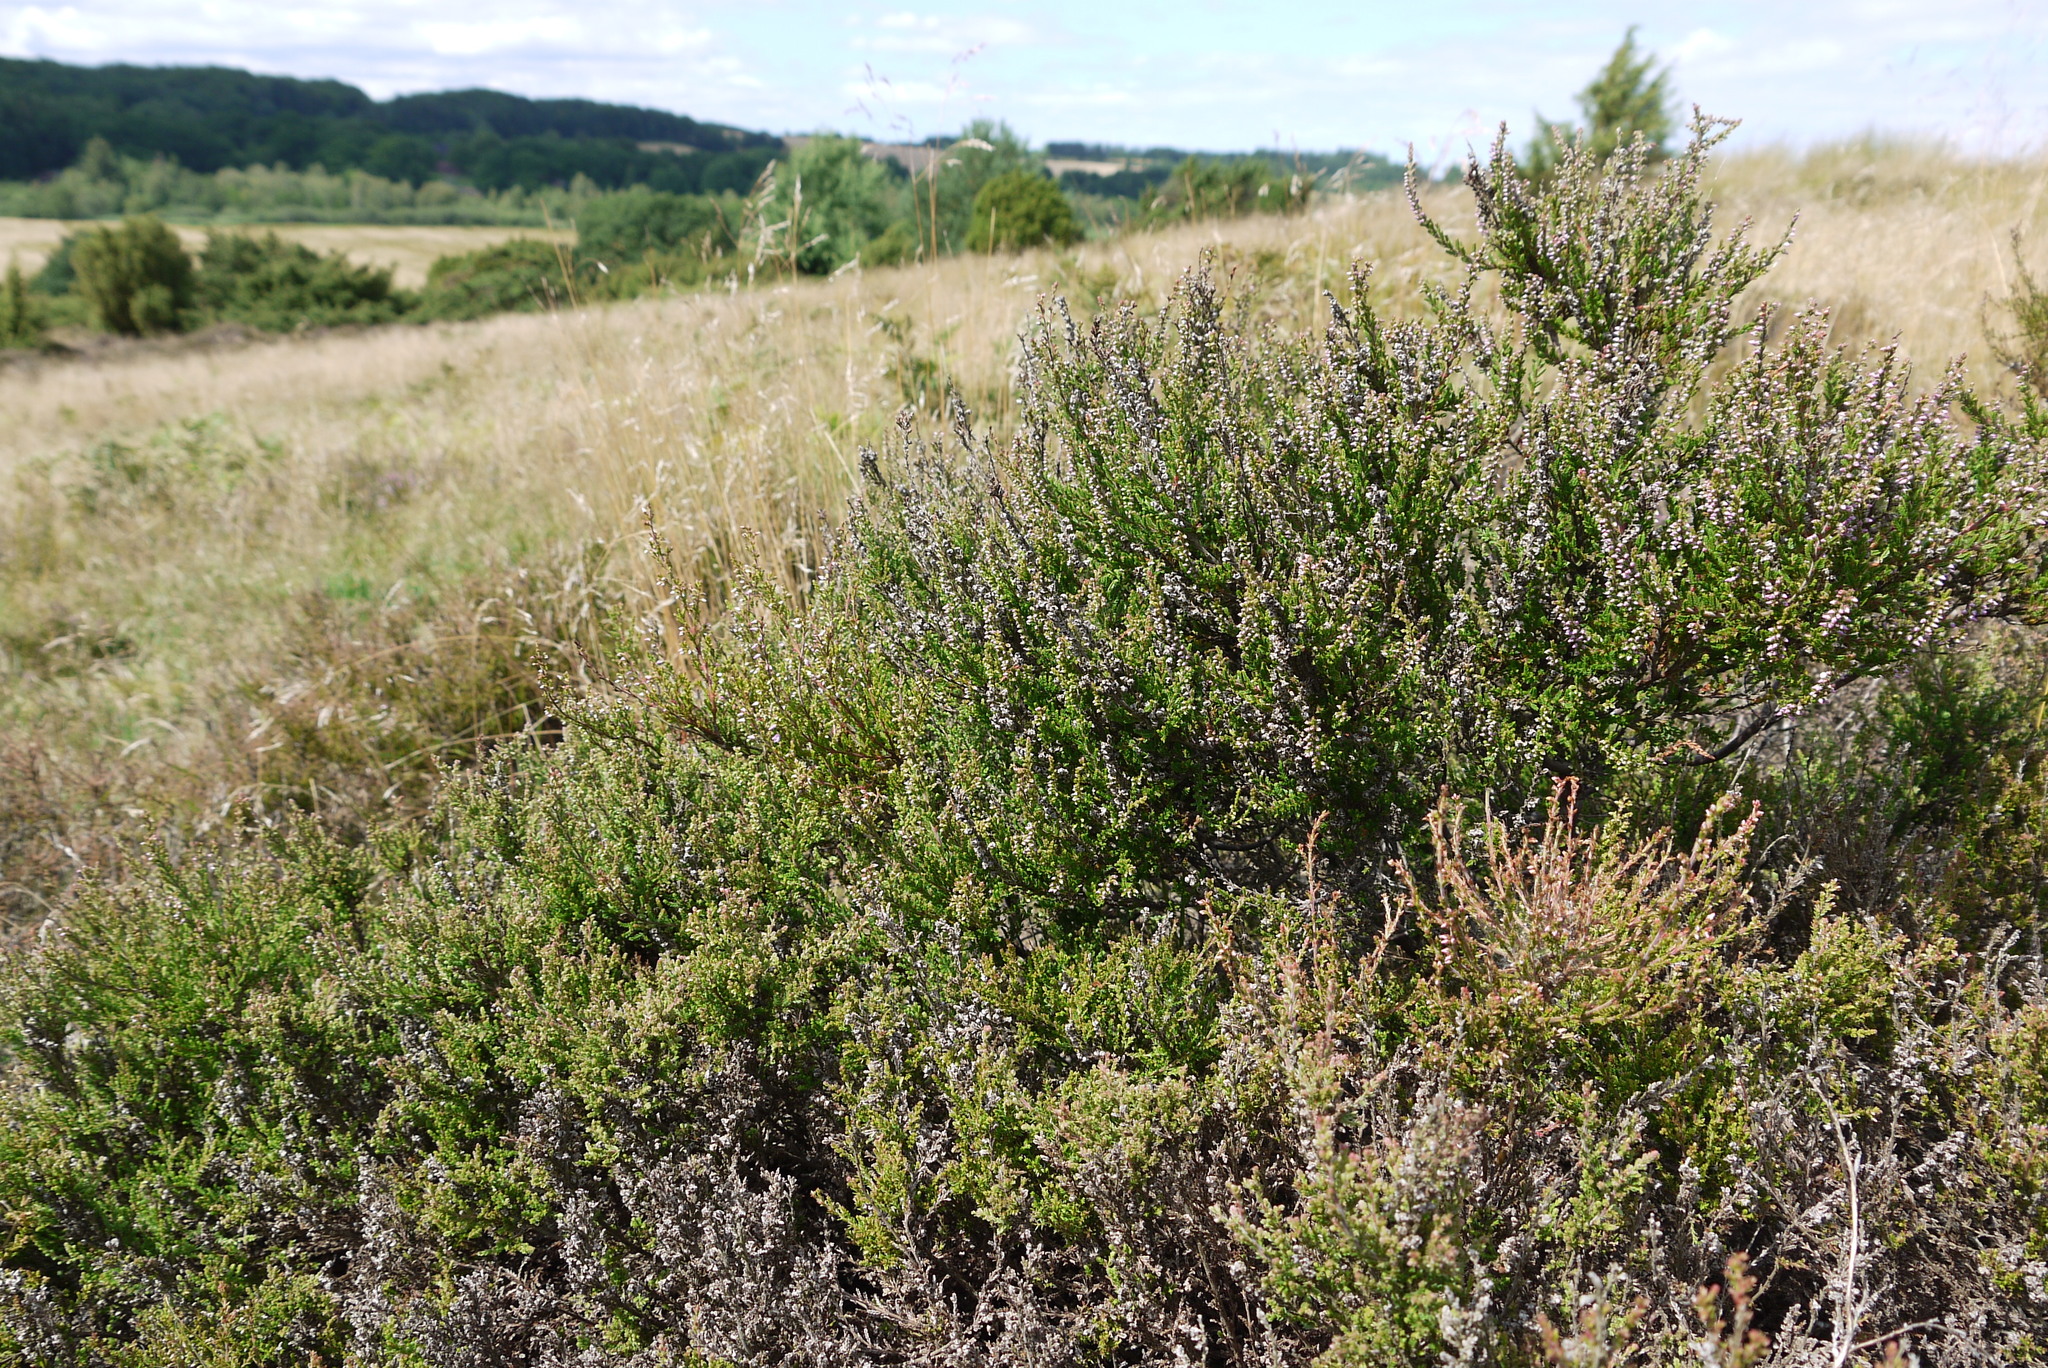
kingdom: Plantae
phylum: Tracheophyta
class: Magnoliopsida
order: Ericales
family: Ericaceae
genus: Calluna
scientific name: Calluna vulgaris
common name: Heather
